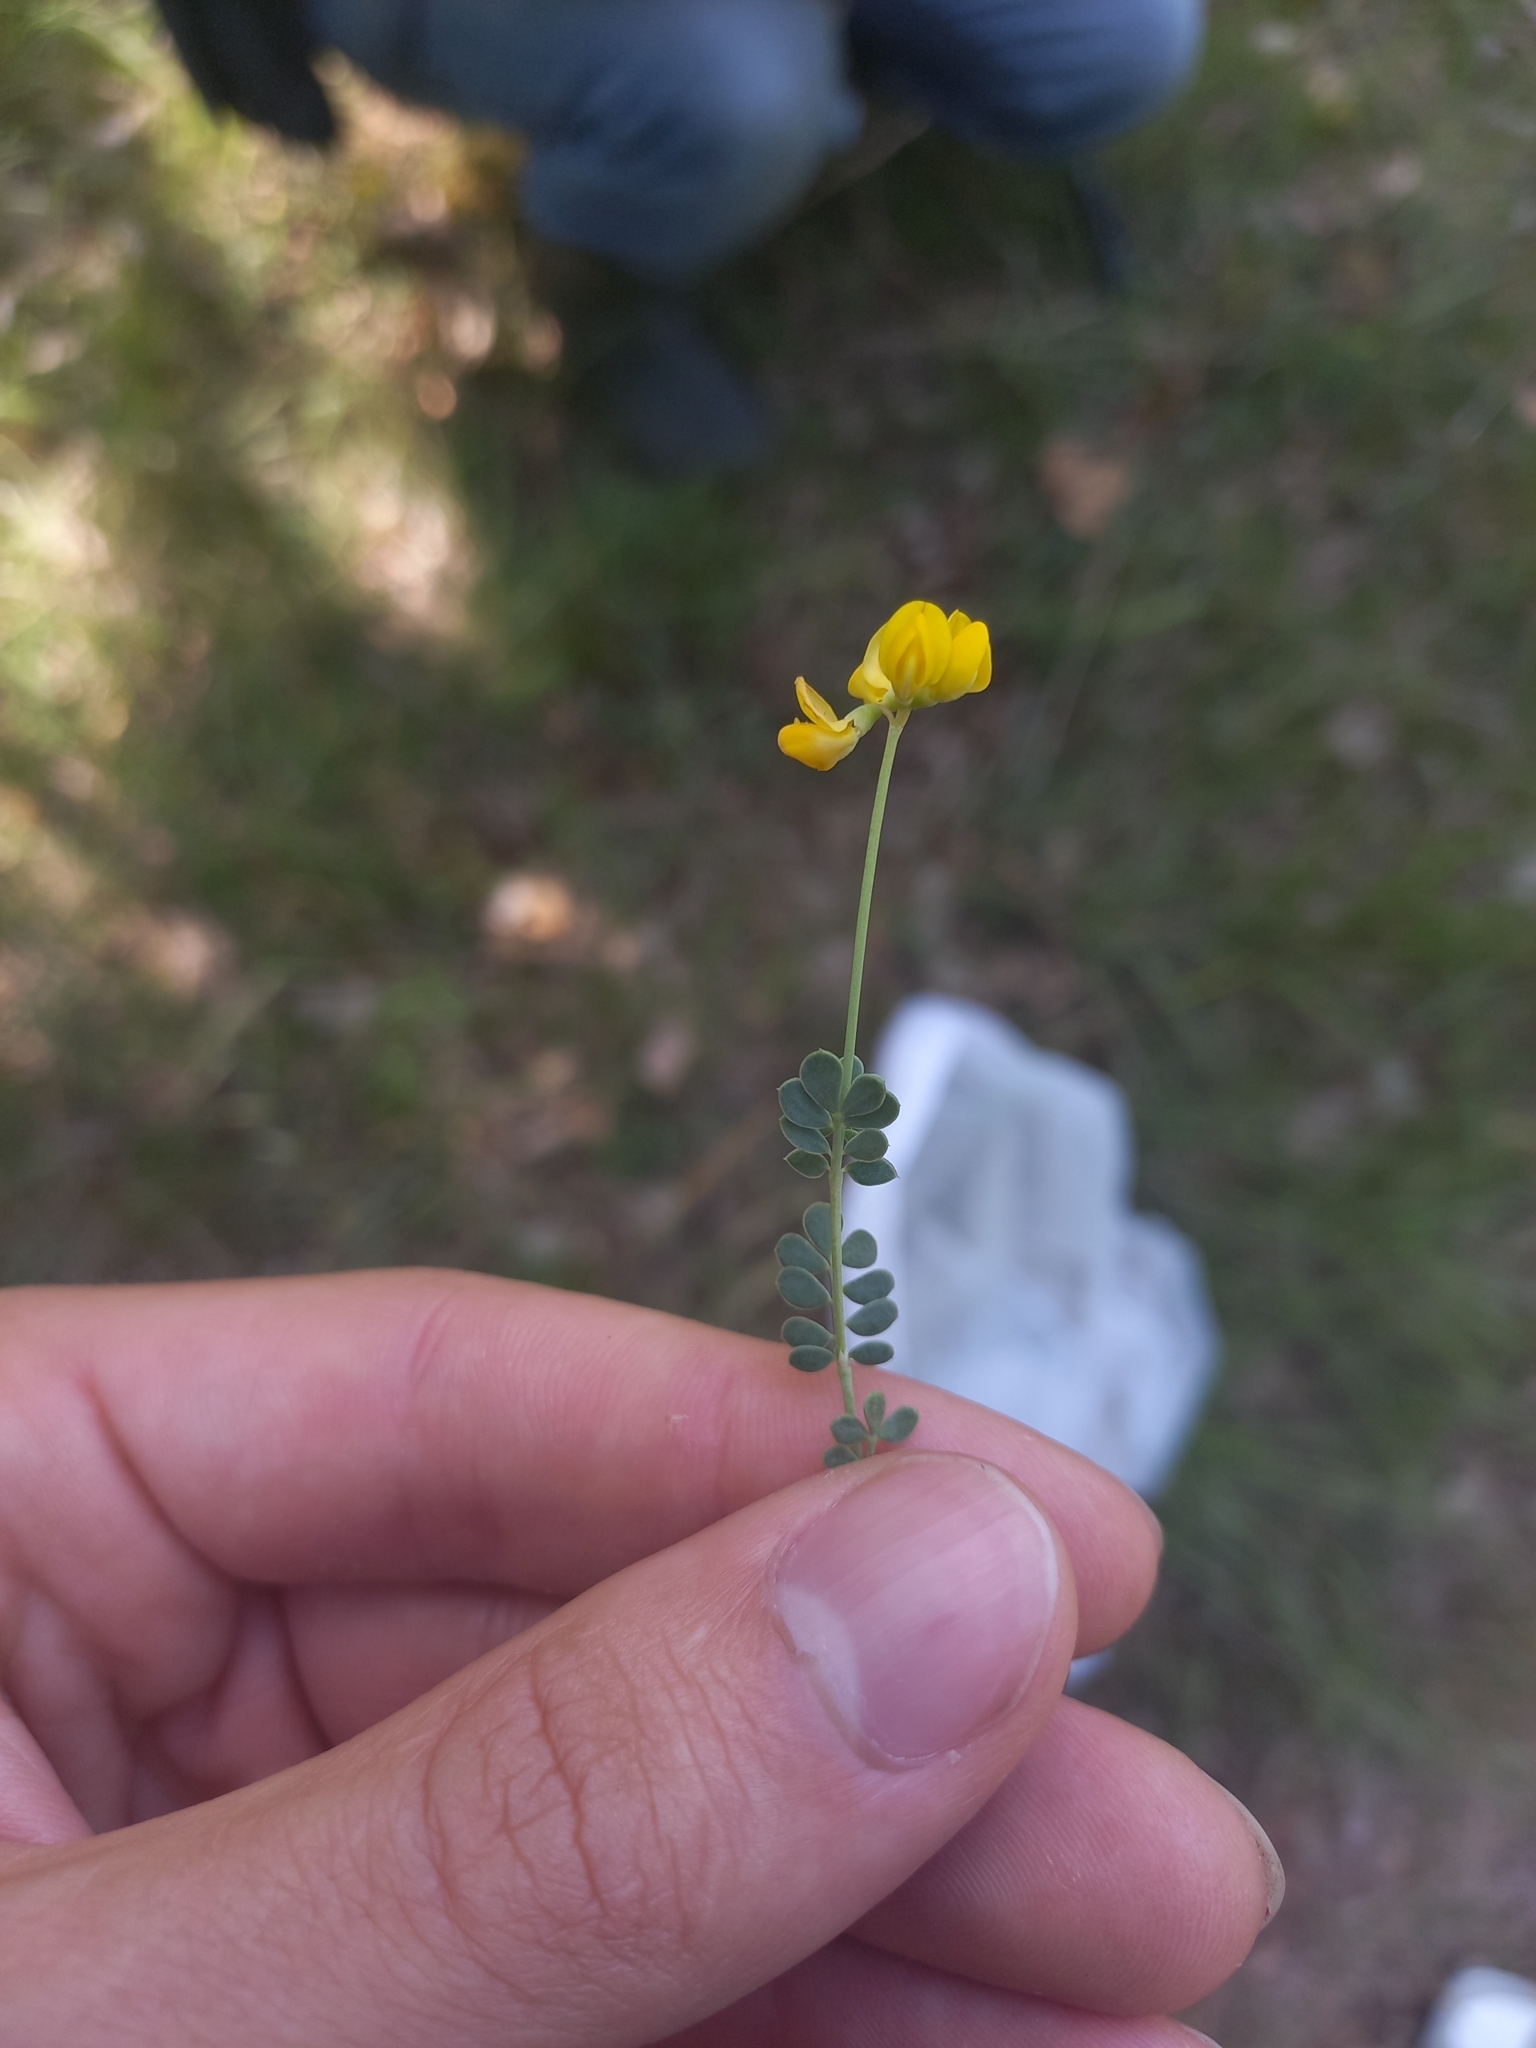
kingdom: Plantae
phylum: Tracheophyta
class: Magnoliopsida
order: Fabales
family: Fabaceae
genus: Coronilla
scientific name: Coronilla minima
